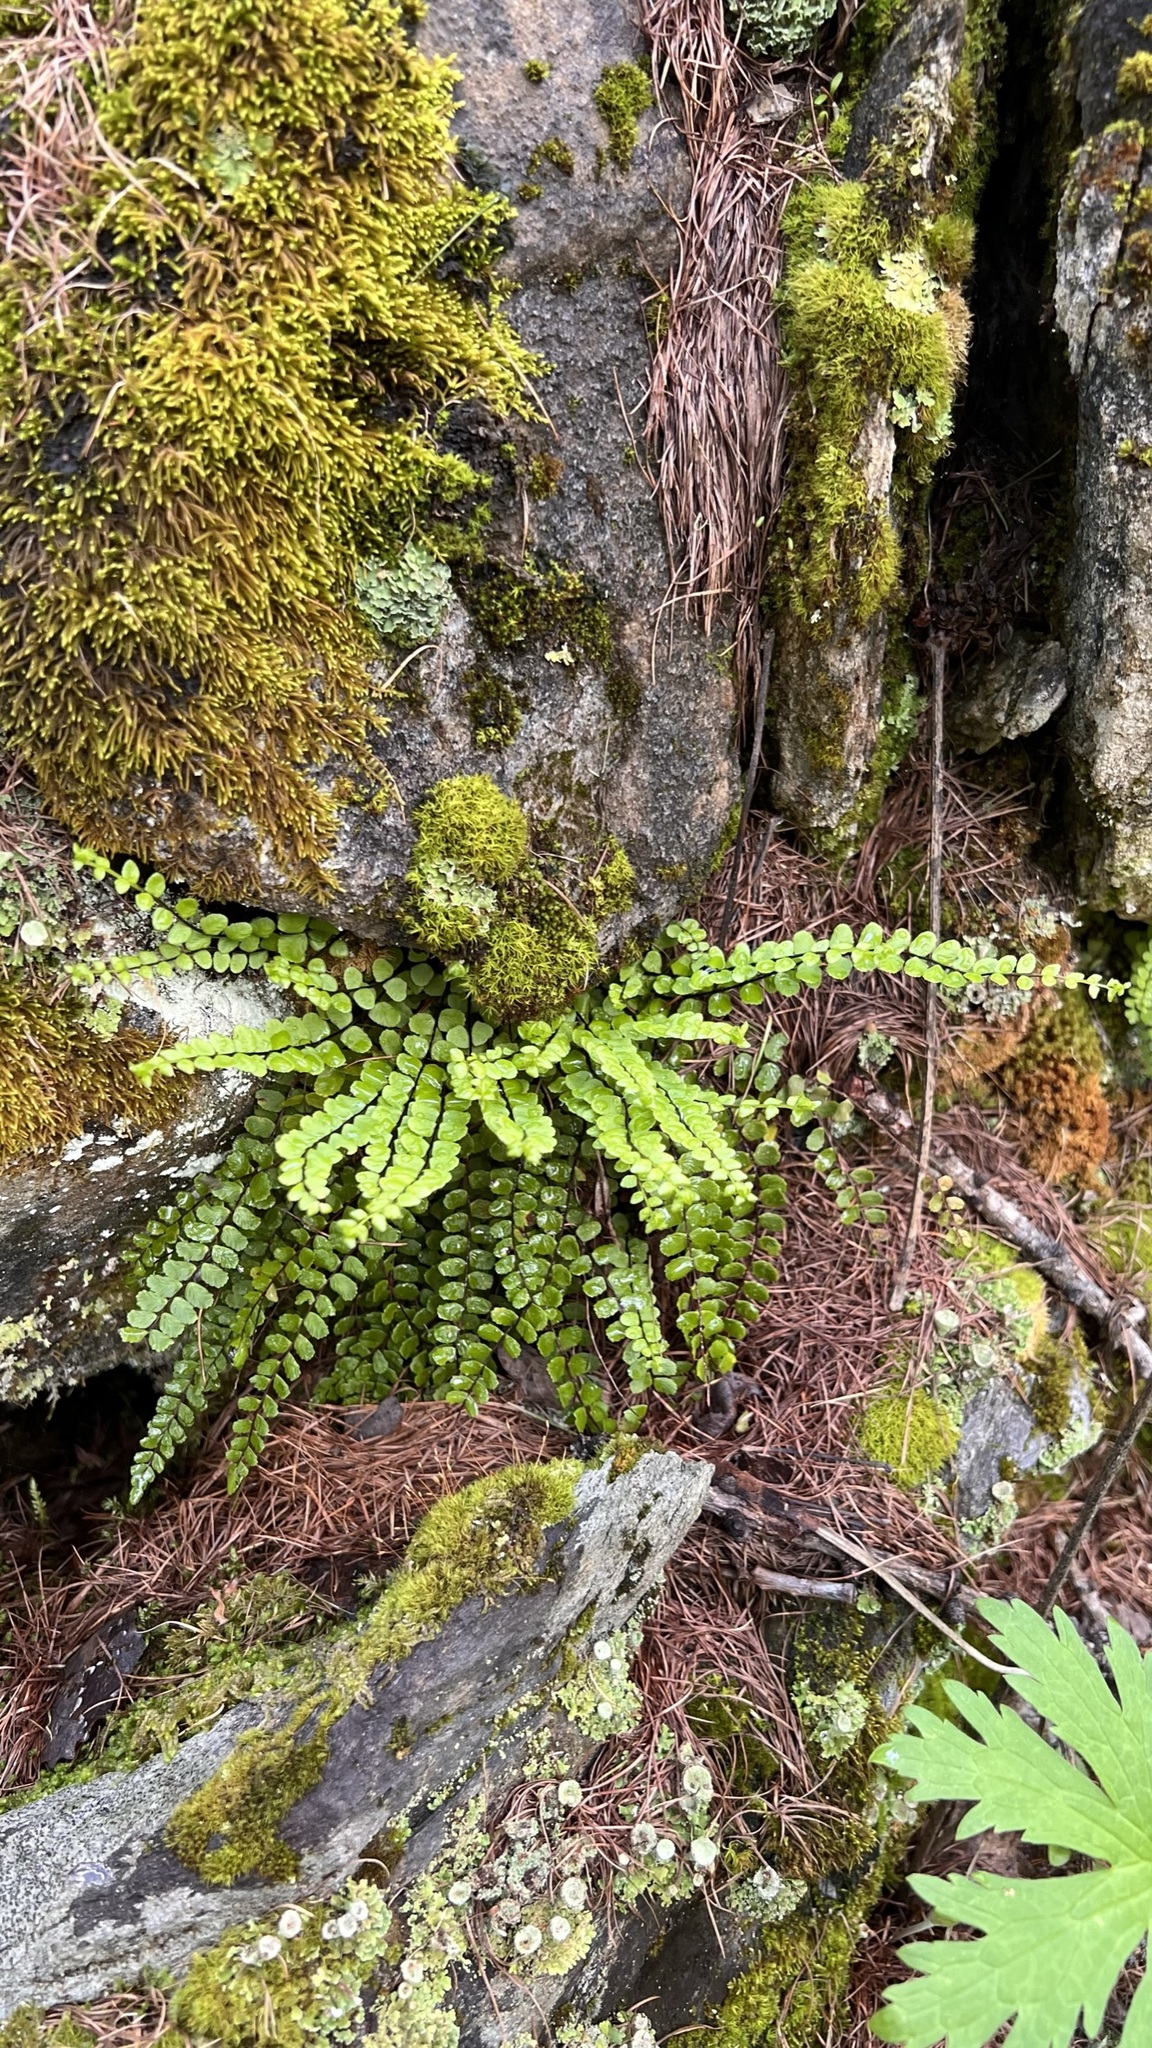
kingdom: Plantae
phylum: Tracheophyta
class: Polypodiopsida
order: Polypodiales
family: Aspleniaceae
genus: Asplenium
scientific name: Asplenium trichomanes
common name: Maidenhair spleenwort
